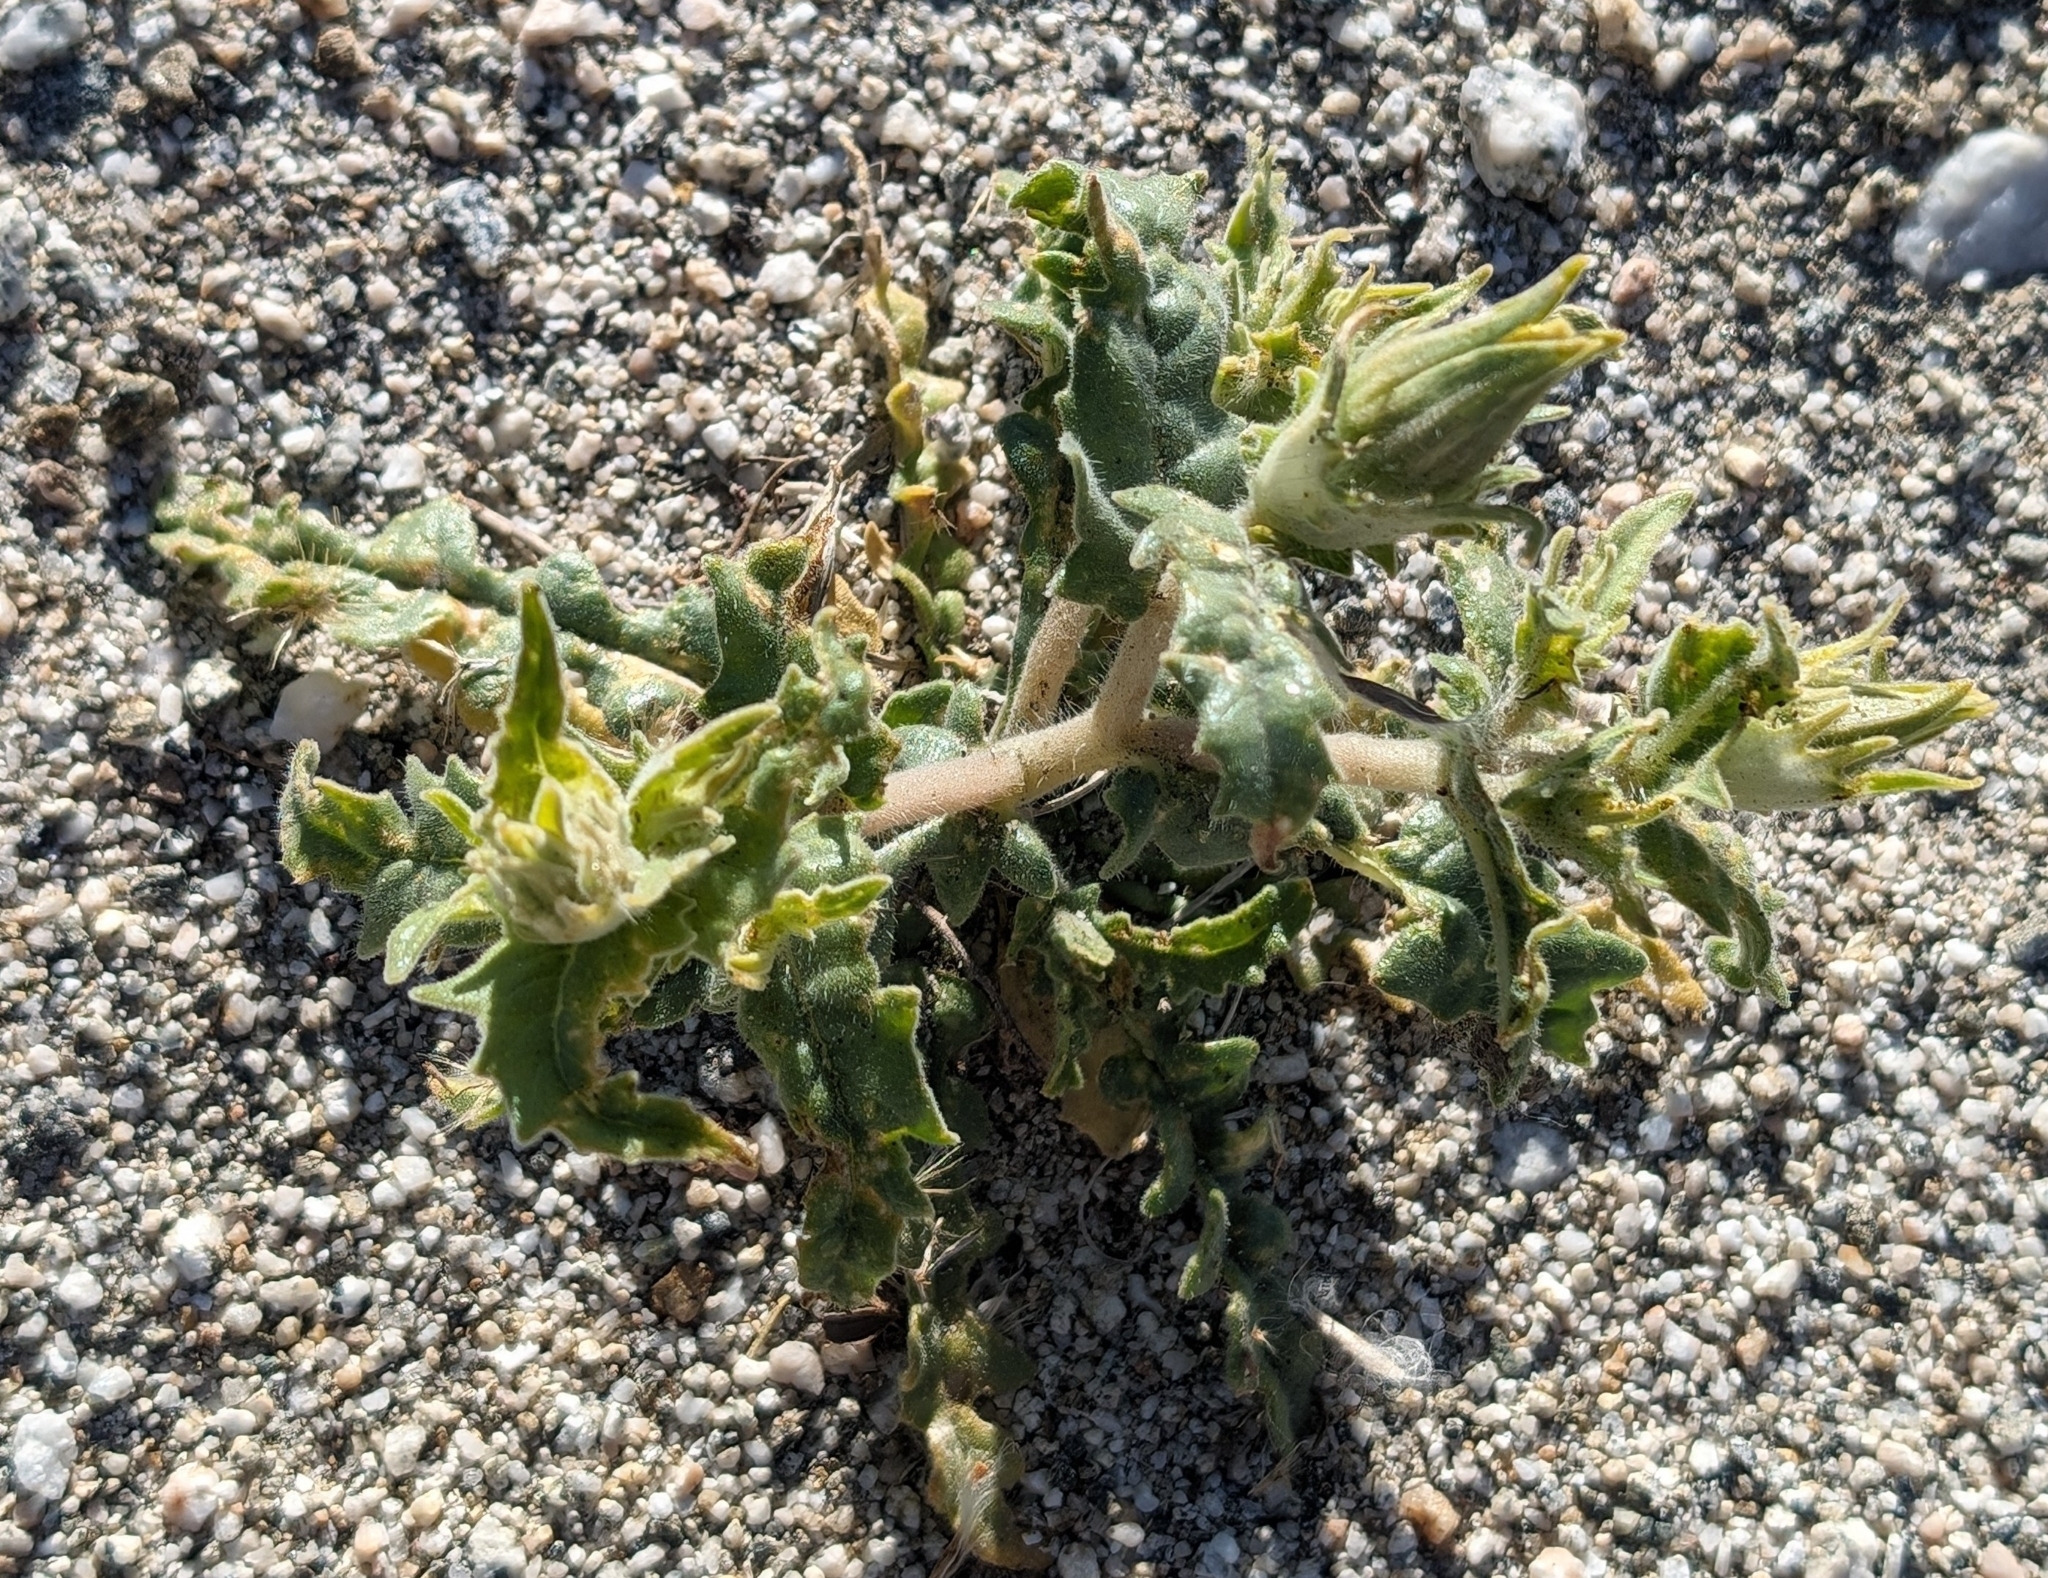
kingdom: Plantae
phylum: Tracheophyta
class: Magnoliopsida
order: Cornales
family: Loasaceae
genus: Mentzelia
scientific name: Mentzelia involucrata
